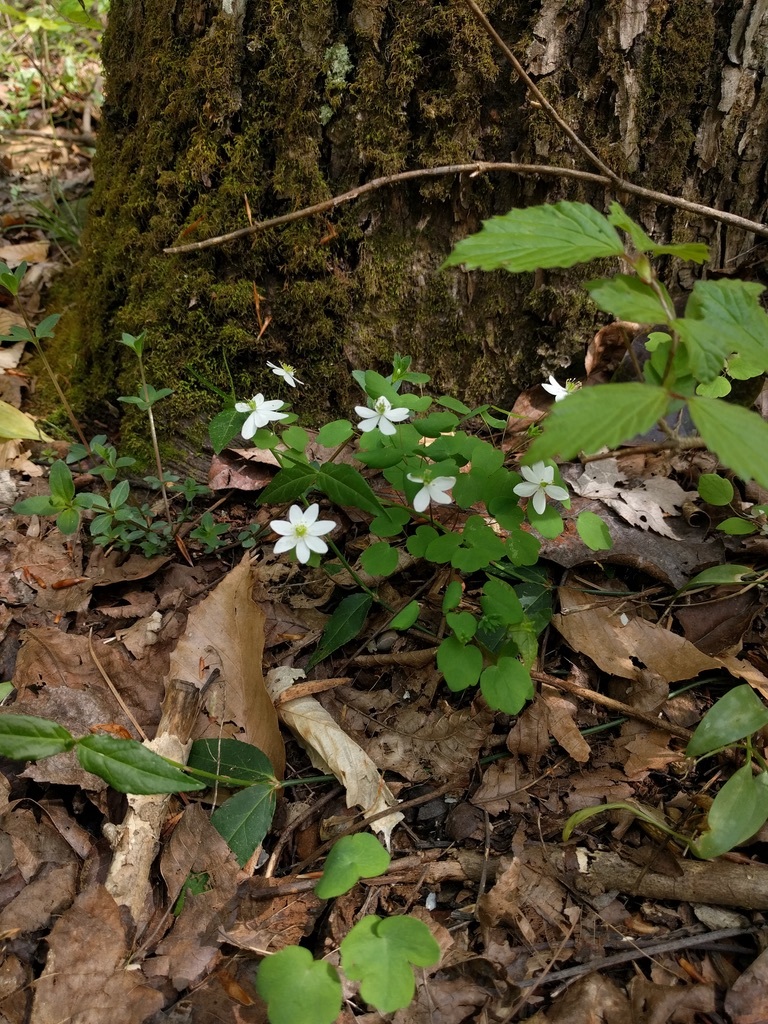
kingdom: Plantae
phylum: Tracheophyta
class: Magnoliopsida
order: Ranunculales
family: Ranunculaceae
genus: Thalictrum
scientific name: Thalictrum thalictroides
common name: Rue-anemone
